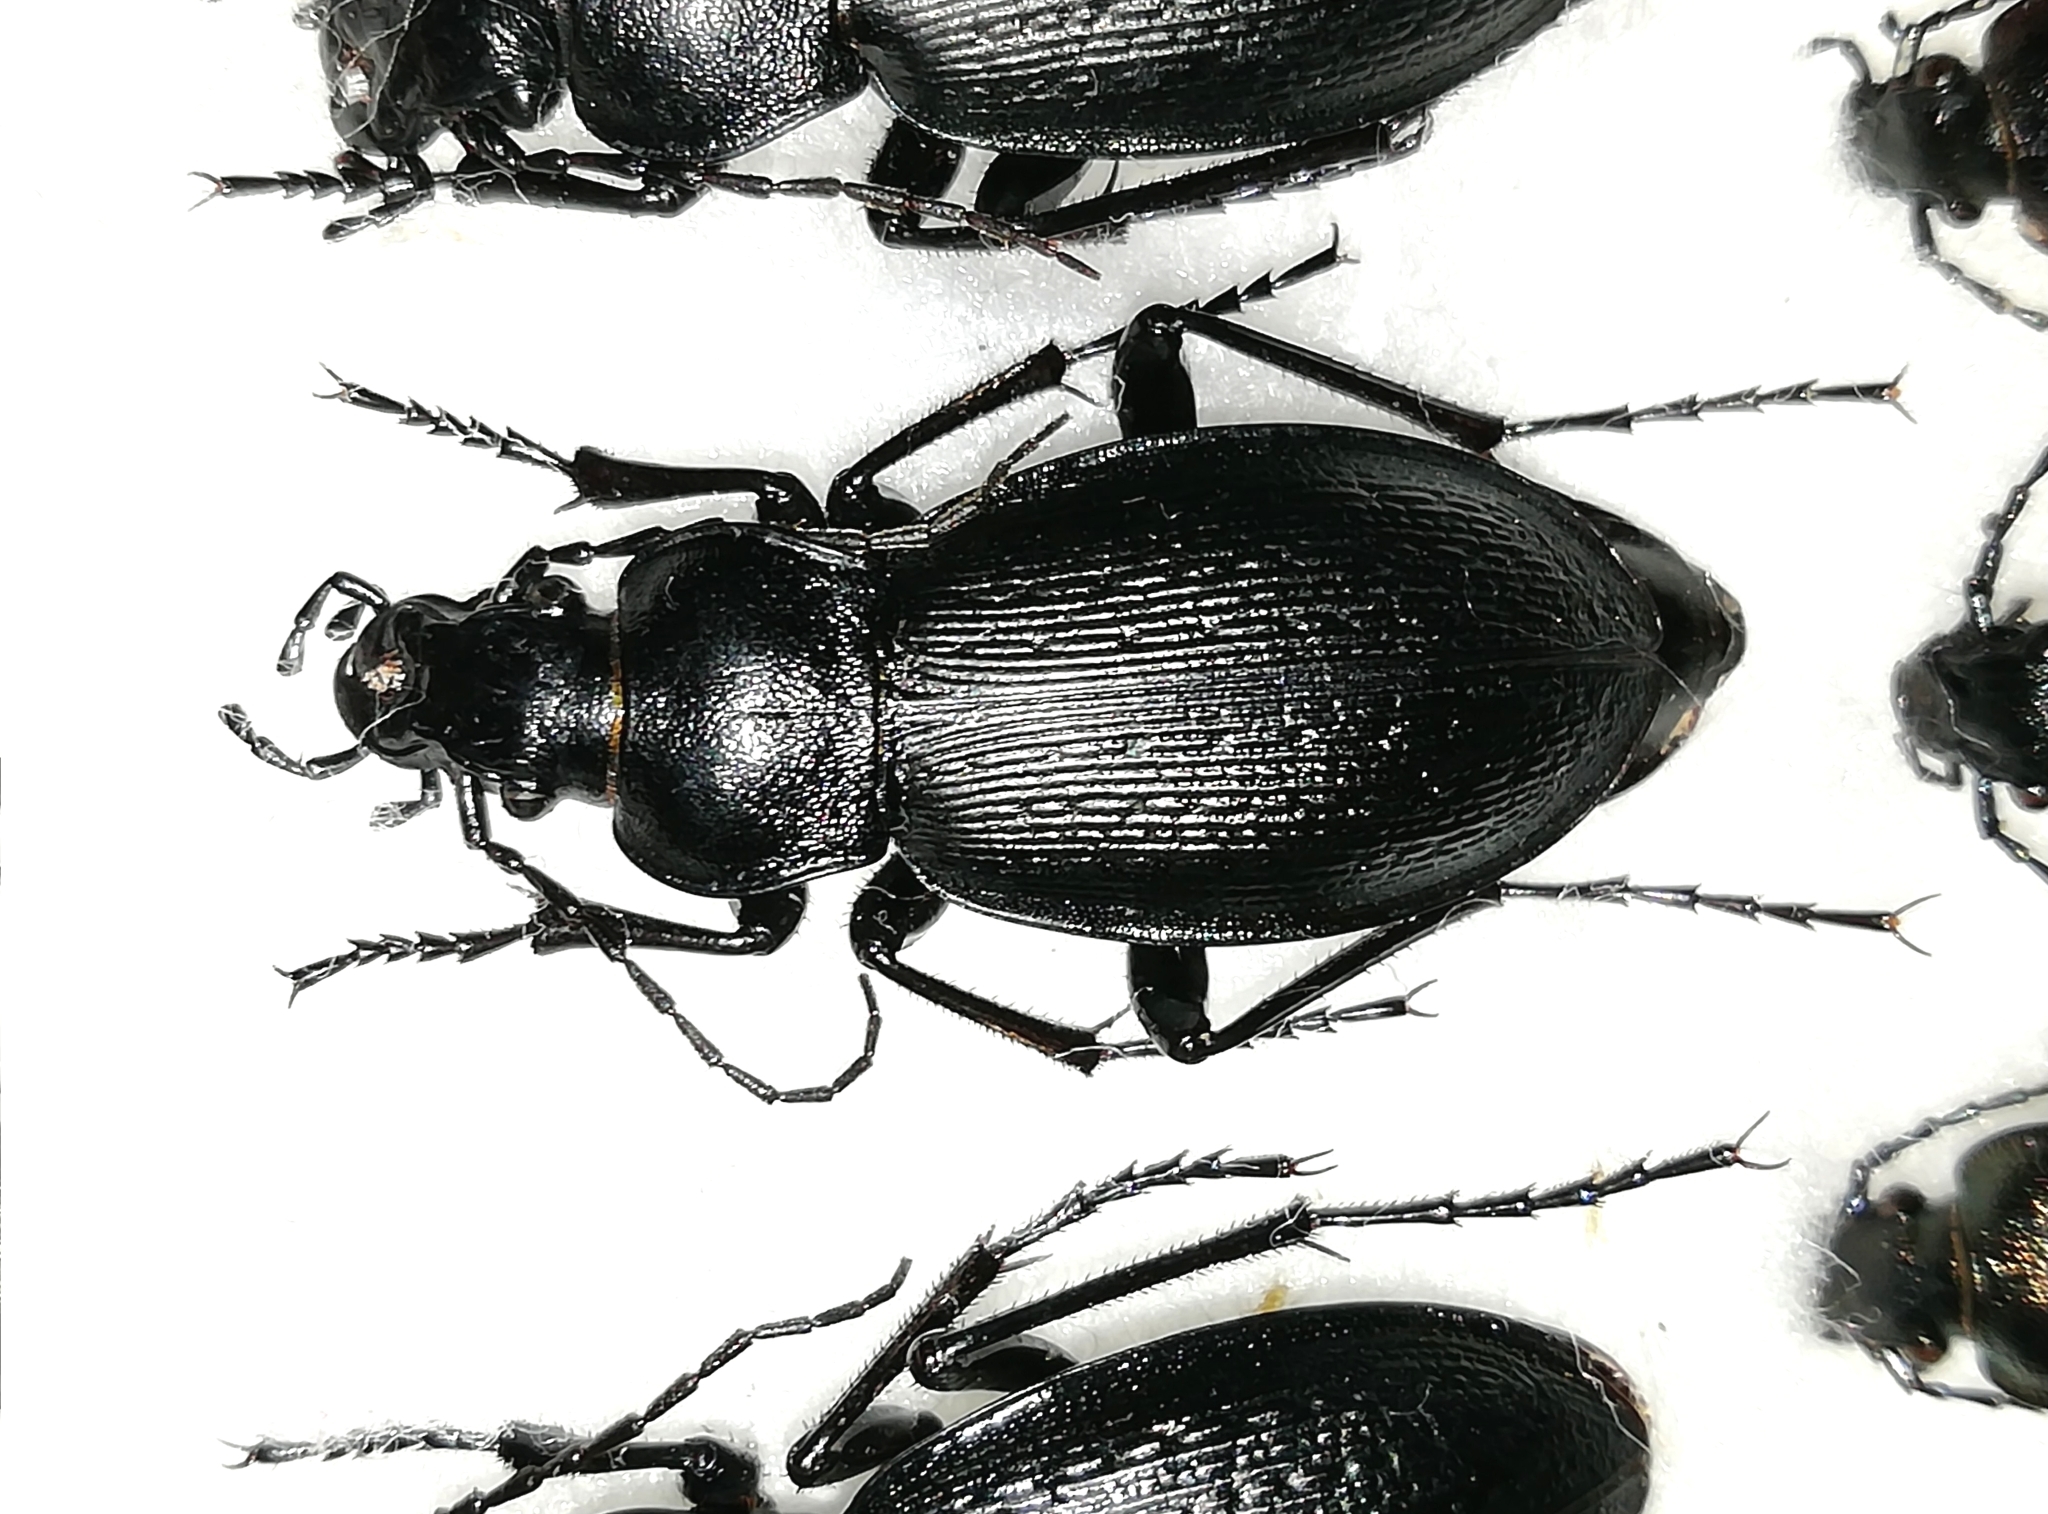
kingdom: Animalia
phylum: Arthropoda
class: Insecta
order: Coleoptera
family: Carabidae
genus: Carabus
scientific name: Carabus spasskianus
